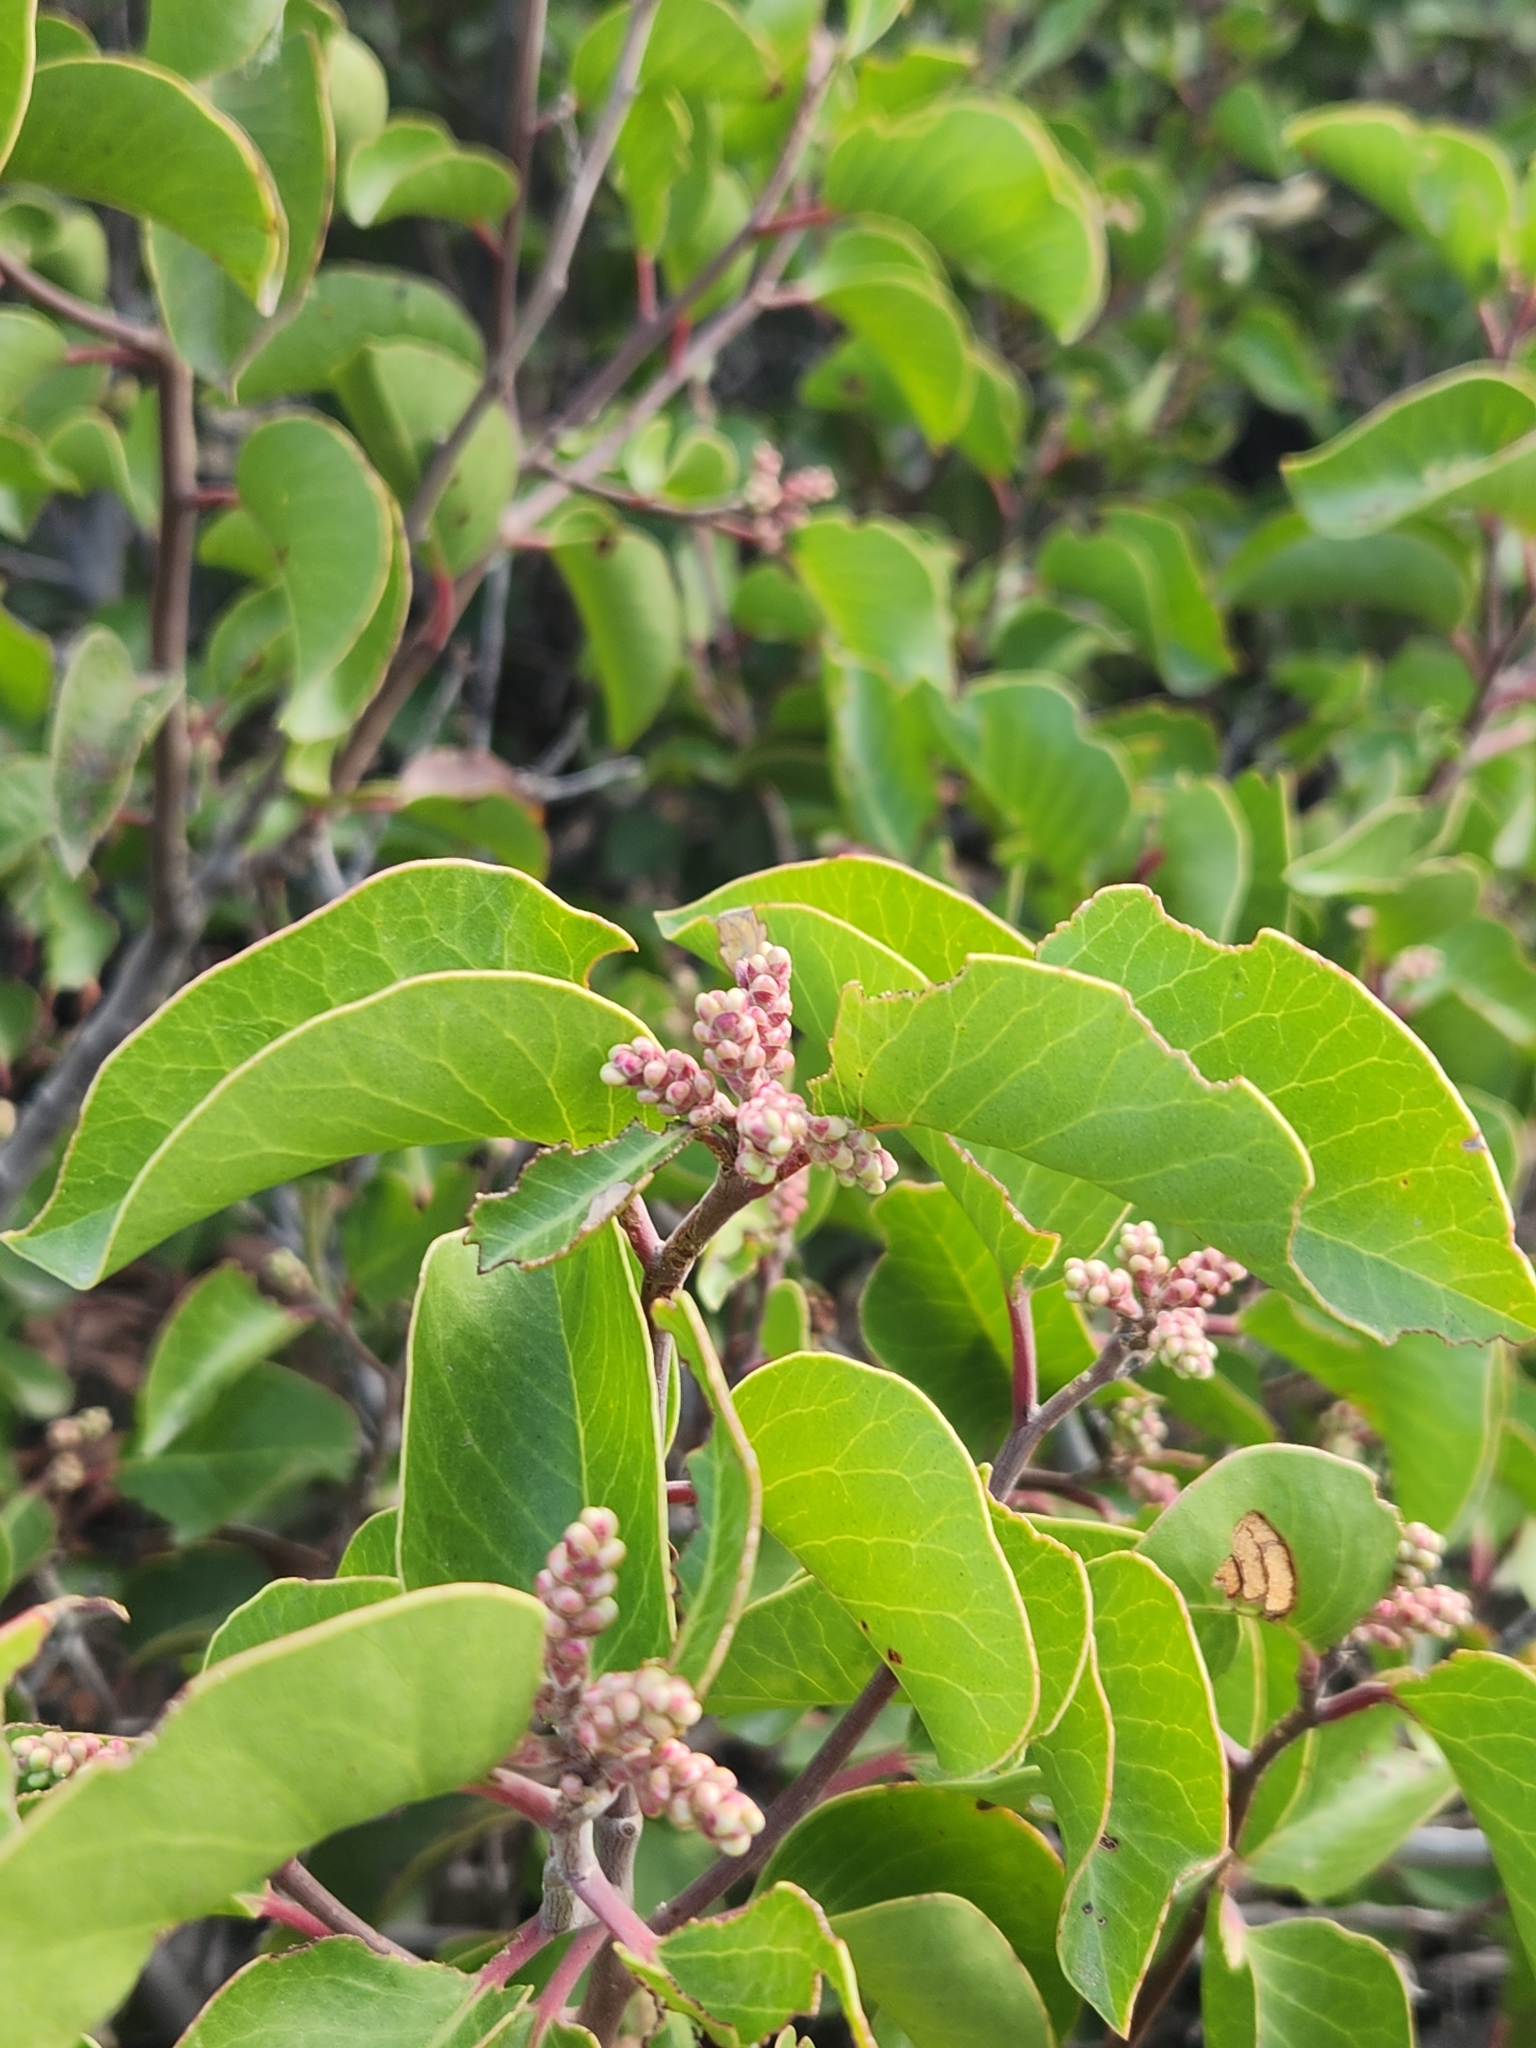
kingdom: Plantae
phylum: Tracheophyta
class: Magnoliopsida
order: Sapindales
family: Anacardiaceae
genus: Rhus
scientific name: Rhus ovata
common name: Sugar sumac
